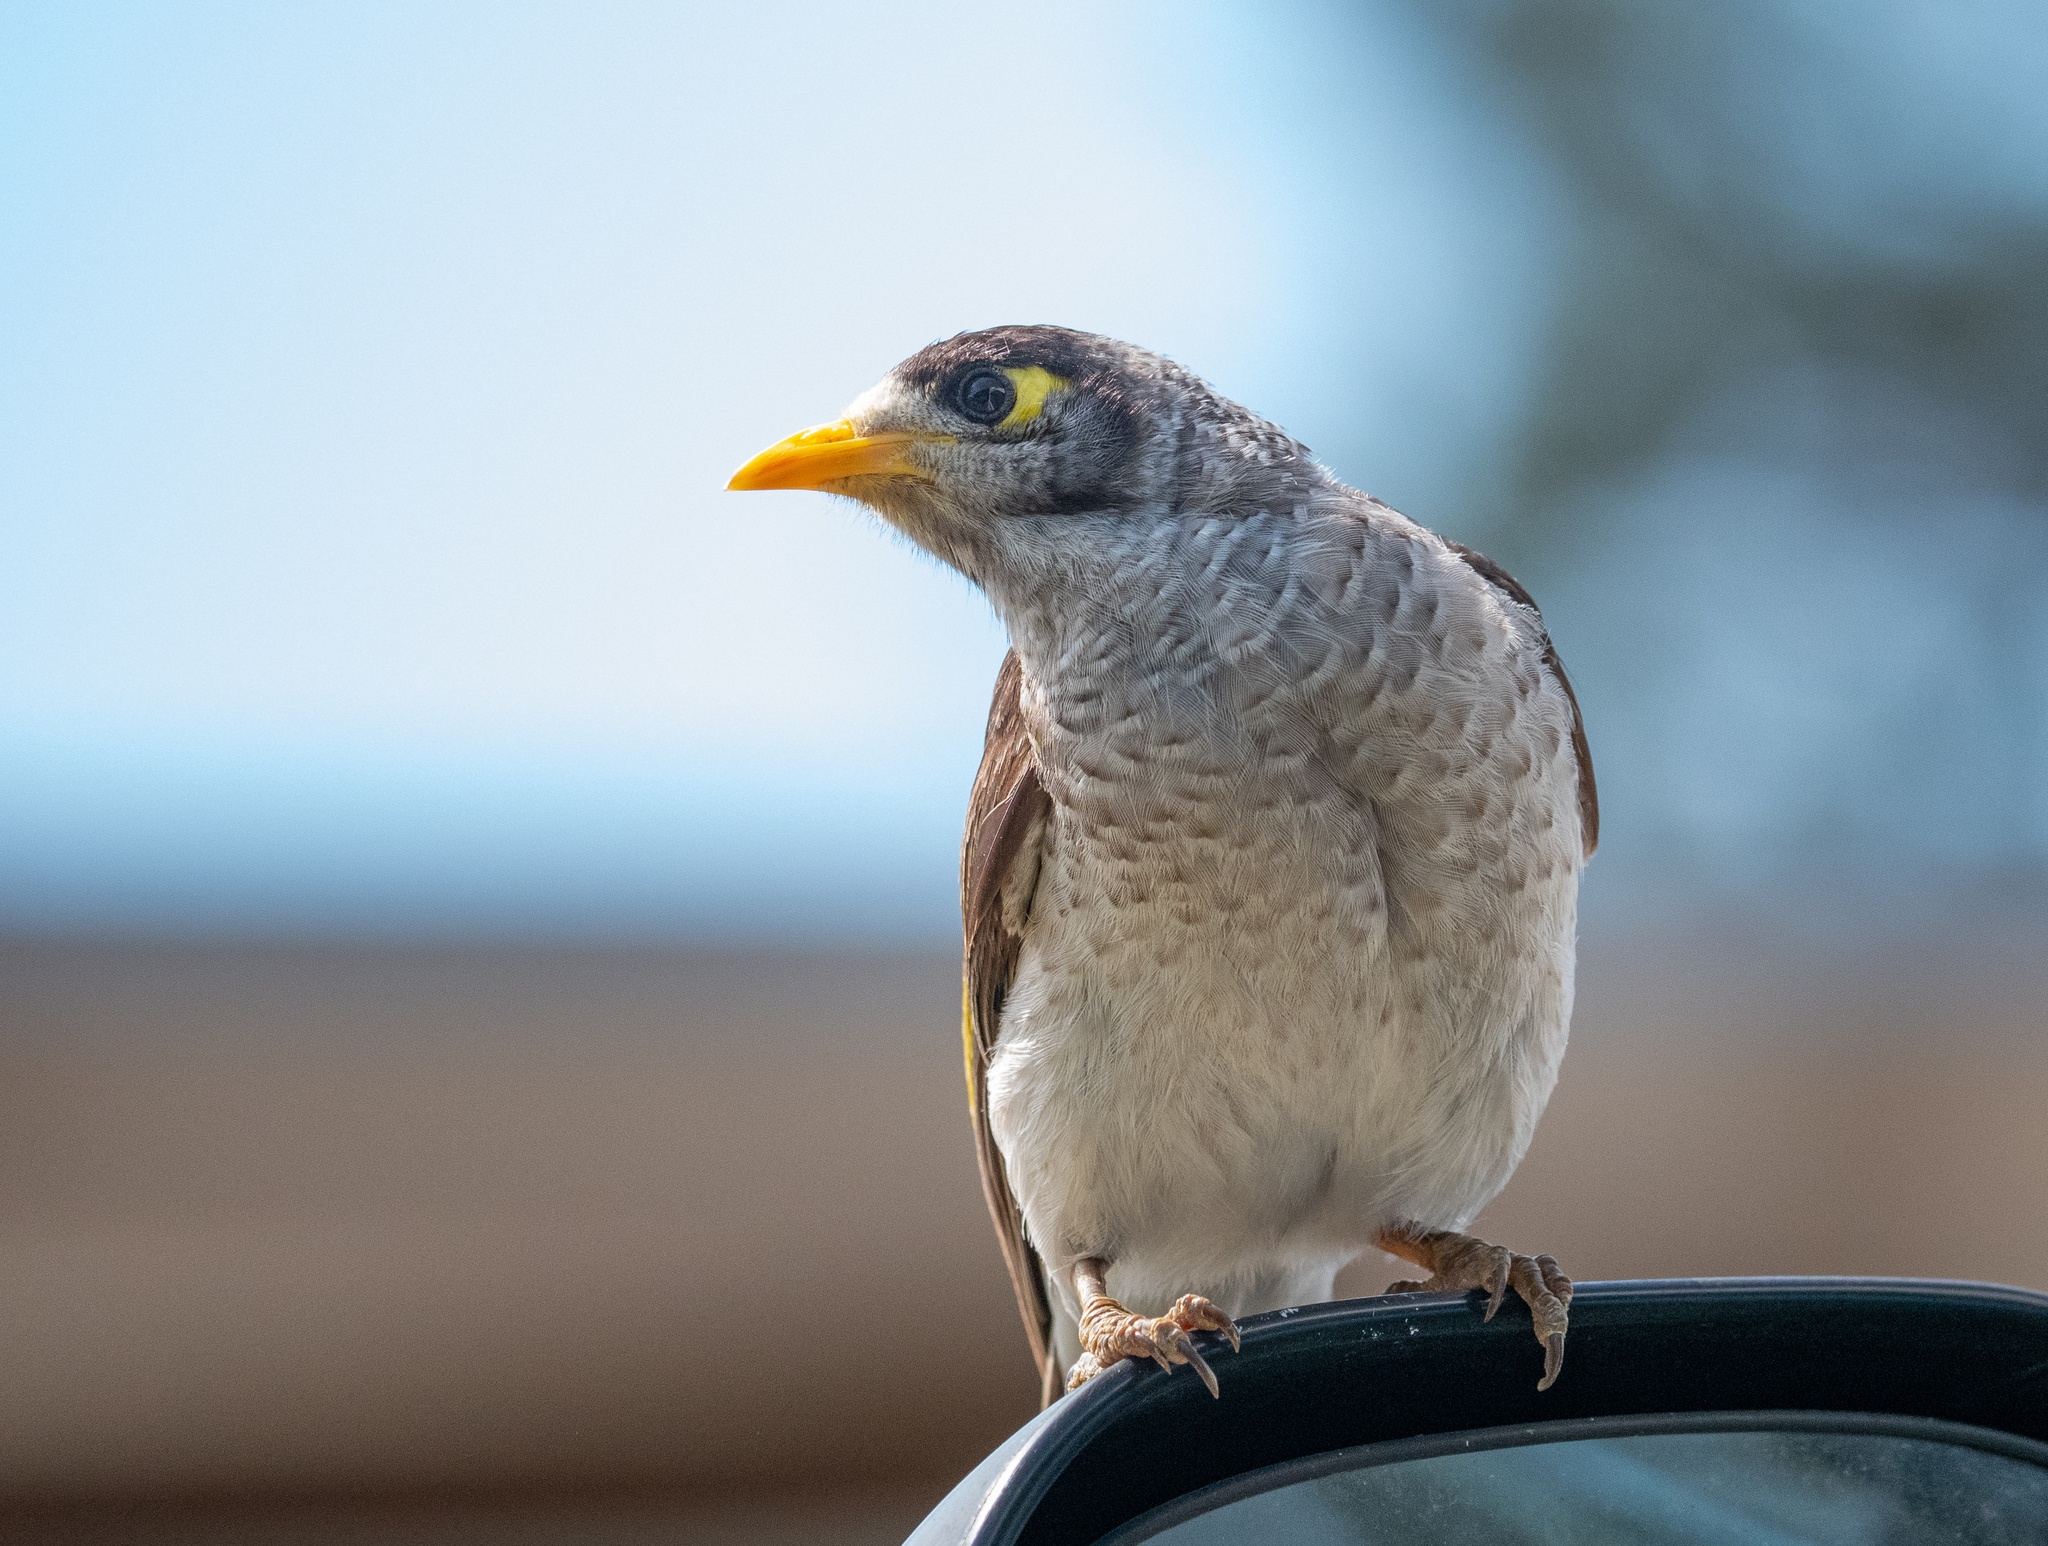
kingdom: Animalia
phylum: Chordata
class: Aves
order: Passeriformes
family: Meliphagidae
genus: Manorina
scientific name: Manorina melanocephala
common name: Noisy miner
